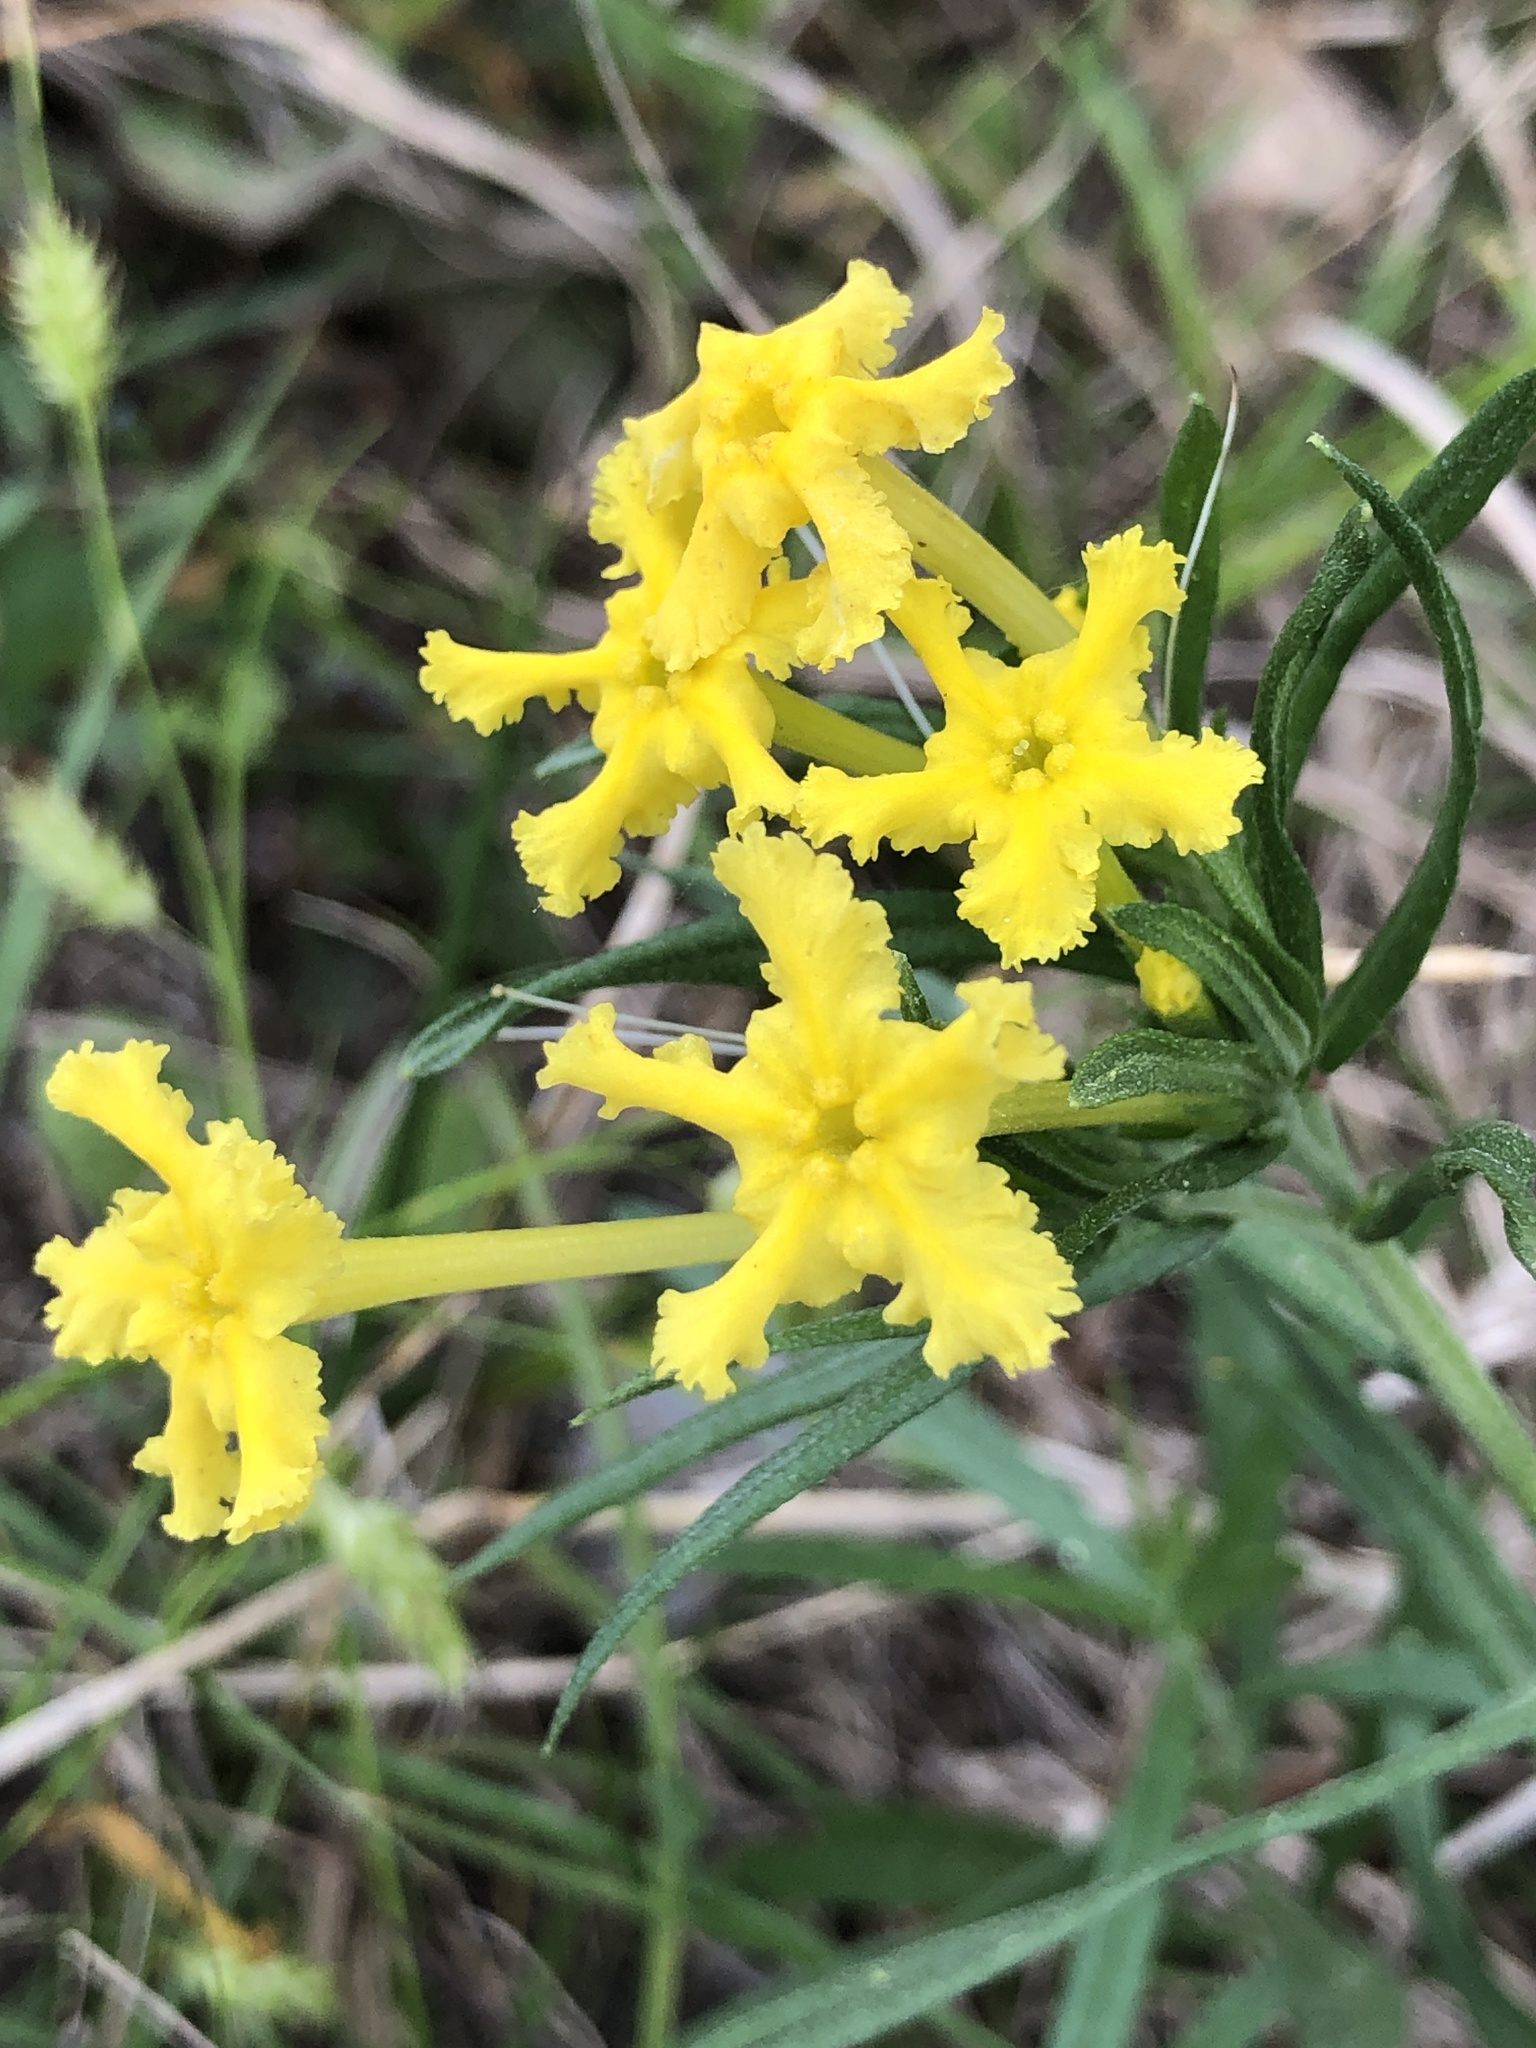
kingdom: Plantae
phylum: Tracheophyta
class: Magnoliopsida
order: Boraginales
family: Boraginaceae
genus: Lithospermum
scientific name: Lithospermum incisum
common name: Fringed gromwell
